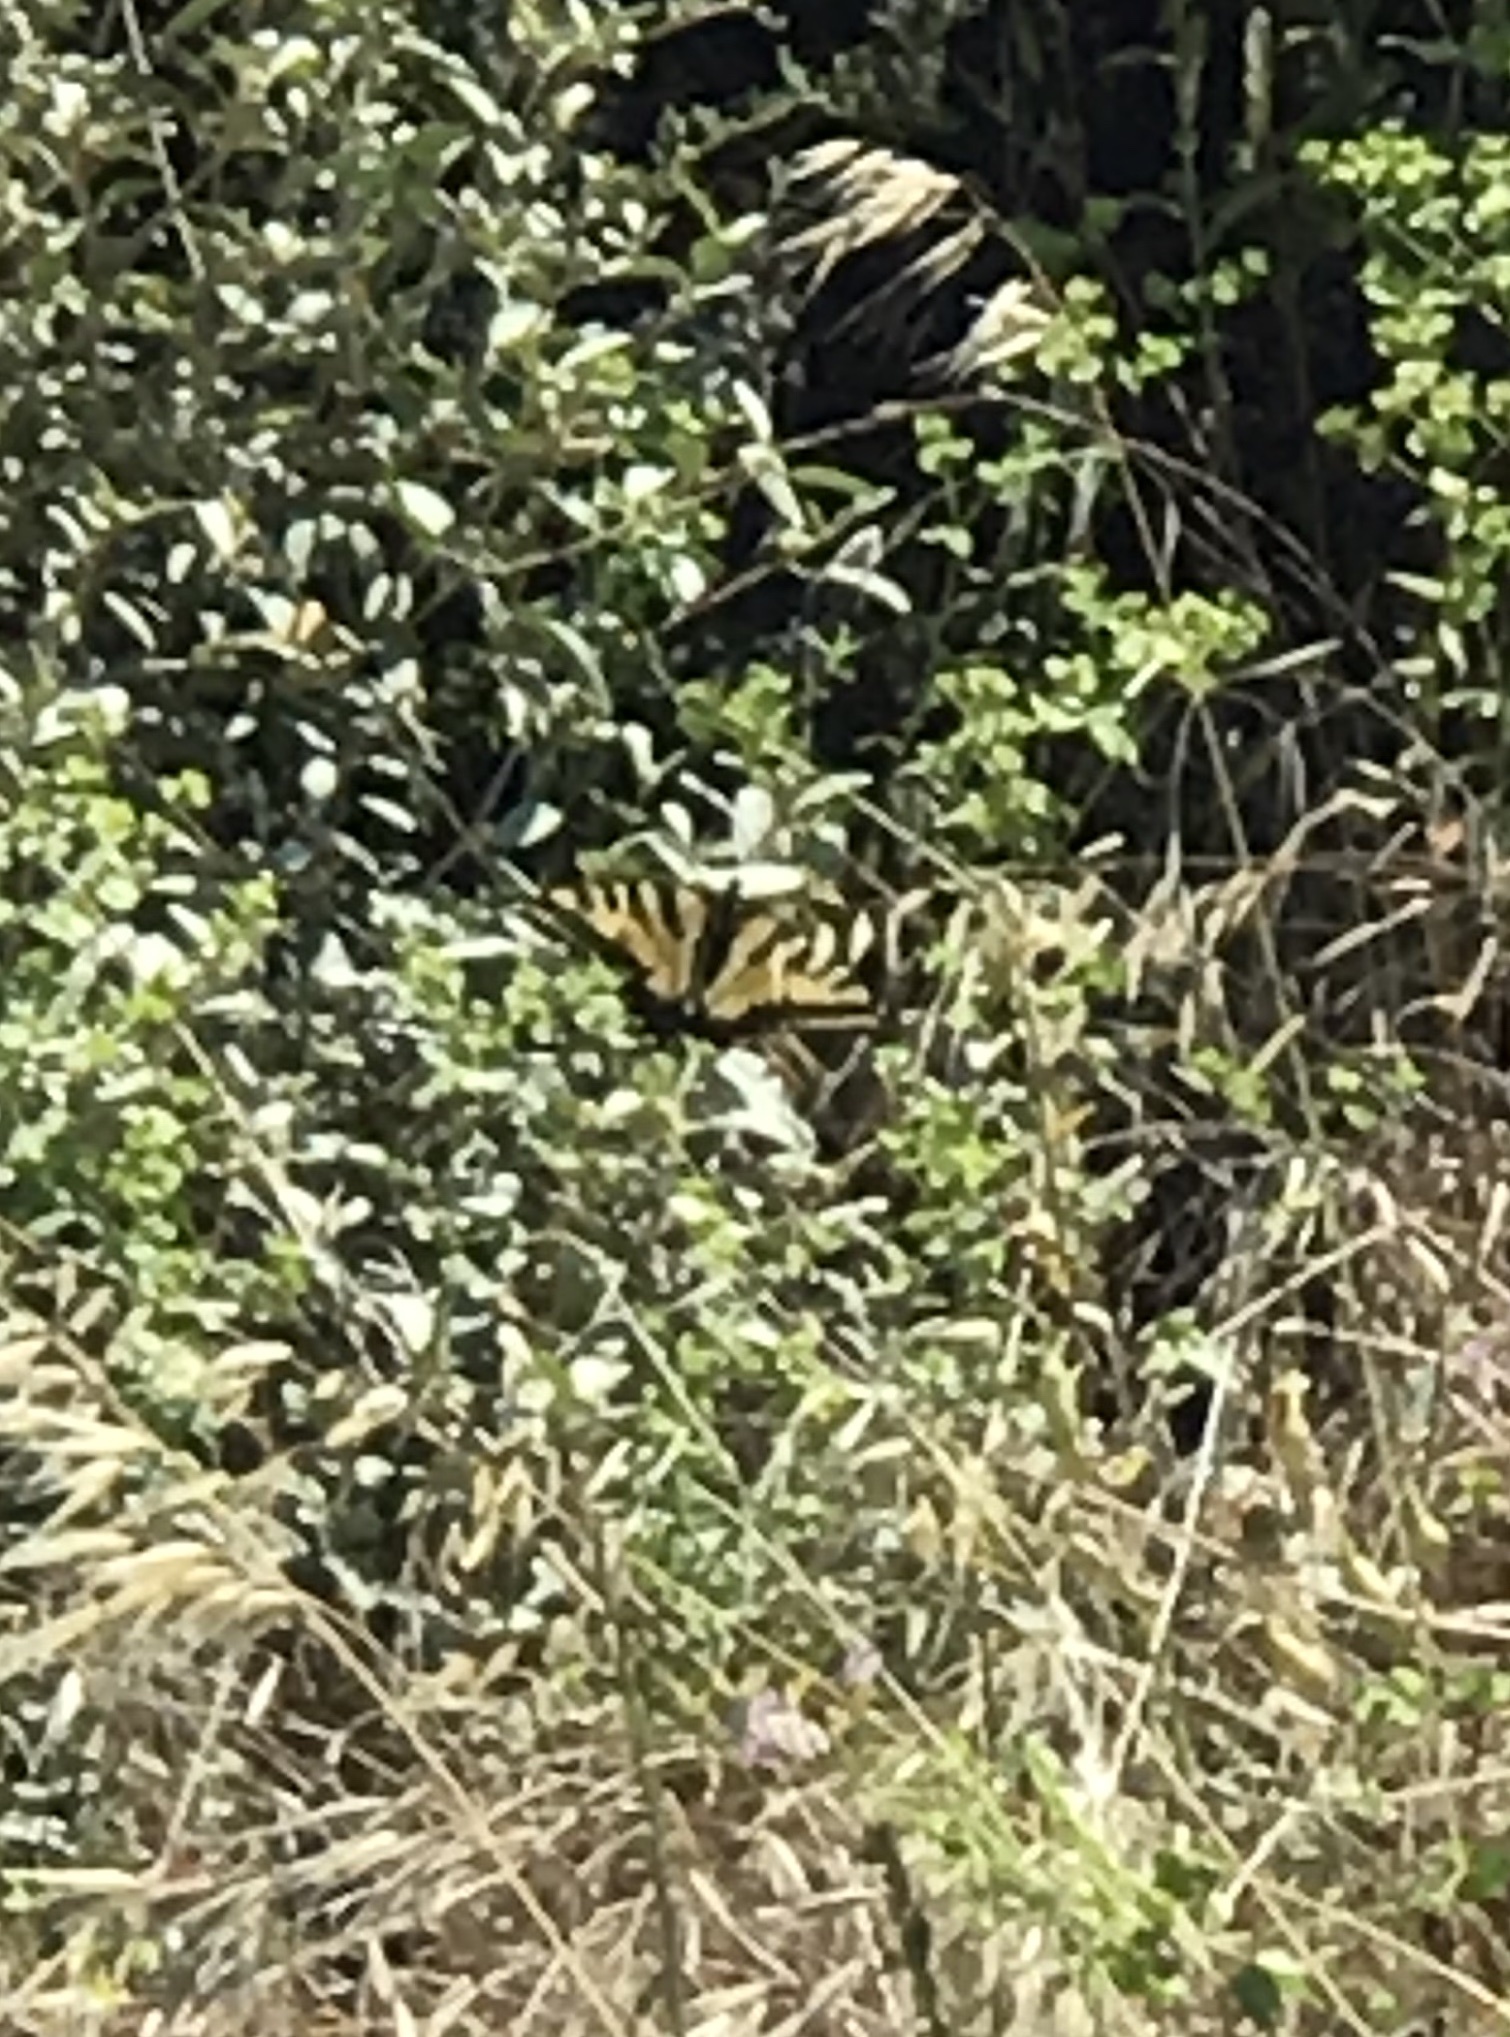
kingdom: Animalia
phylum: Arthropoda
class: Insecta
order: Lepidoptera
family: Papilionidae
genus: Papilio
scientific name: Papilio rutulus
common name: Western tiger swallowtail
